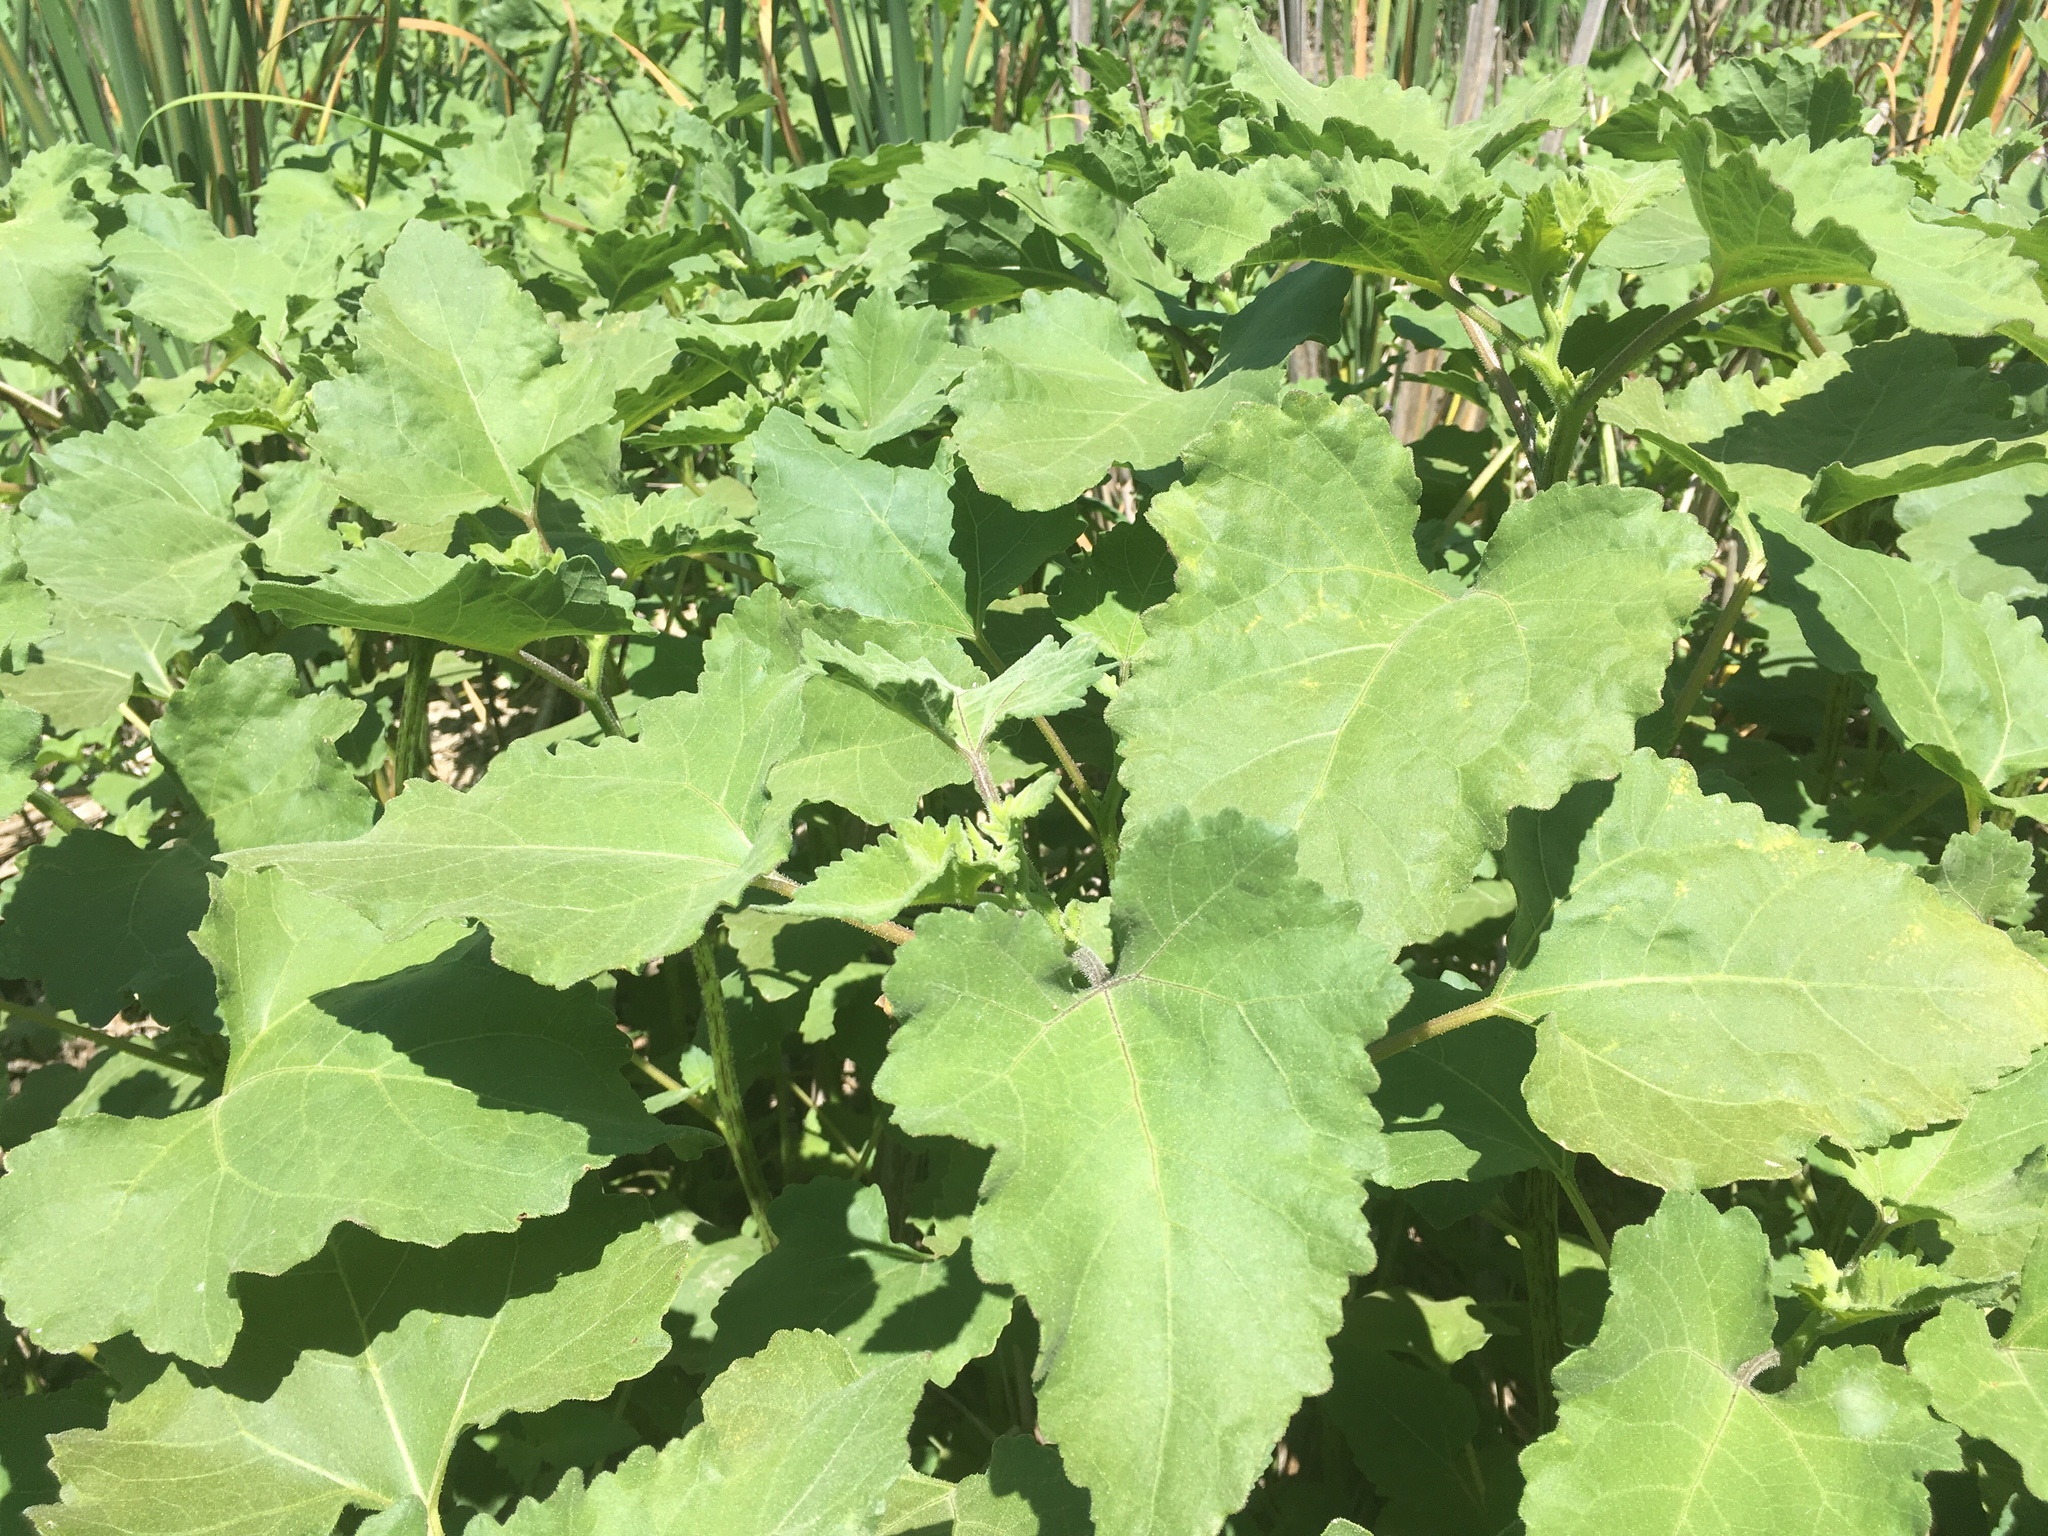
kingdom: Plantae
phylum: Tracheophyta
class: Magnoliopsida
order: Asterales
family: Asteraceae
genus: Xanthium
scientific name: Xanthium strumarium
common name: Rough cocklebur
